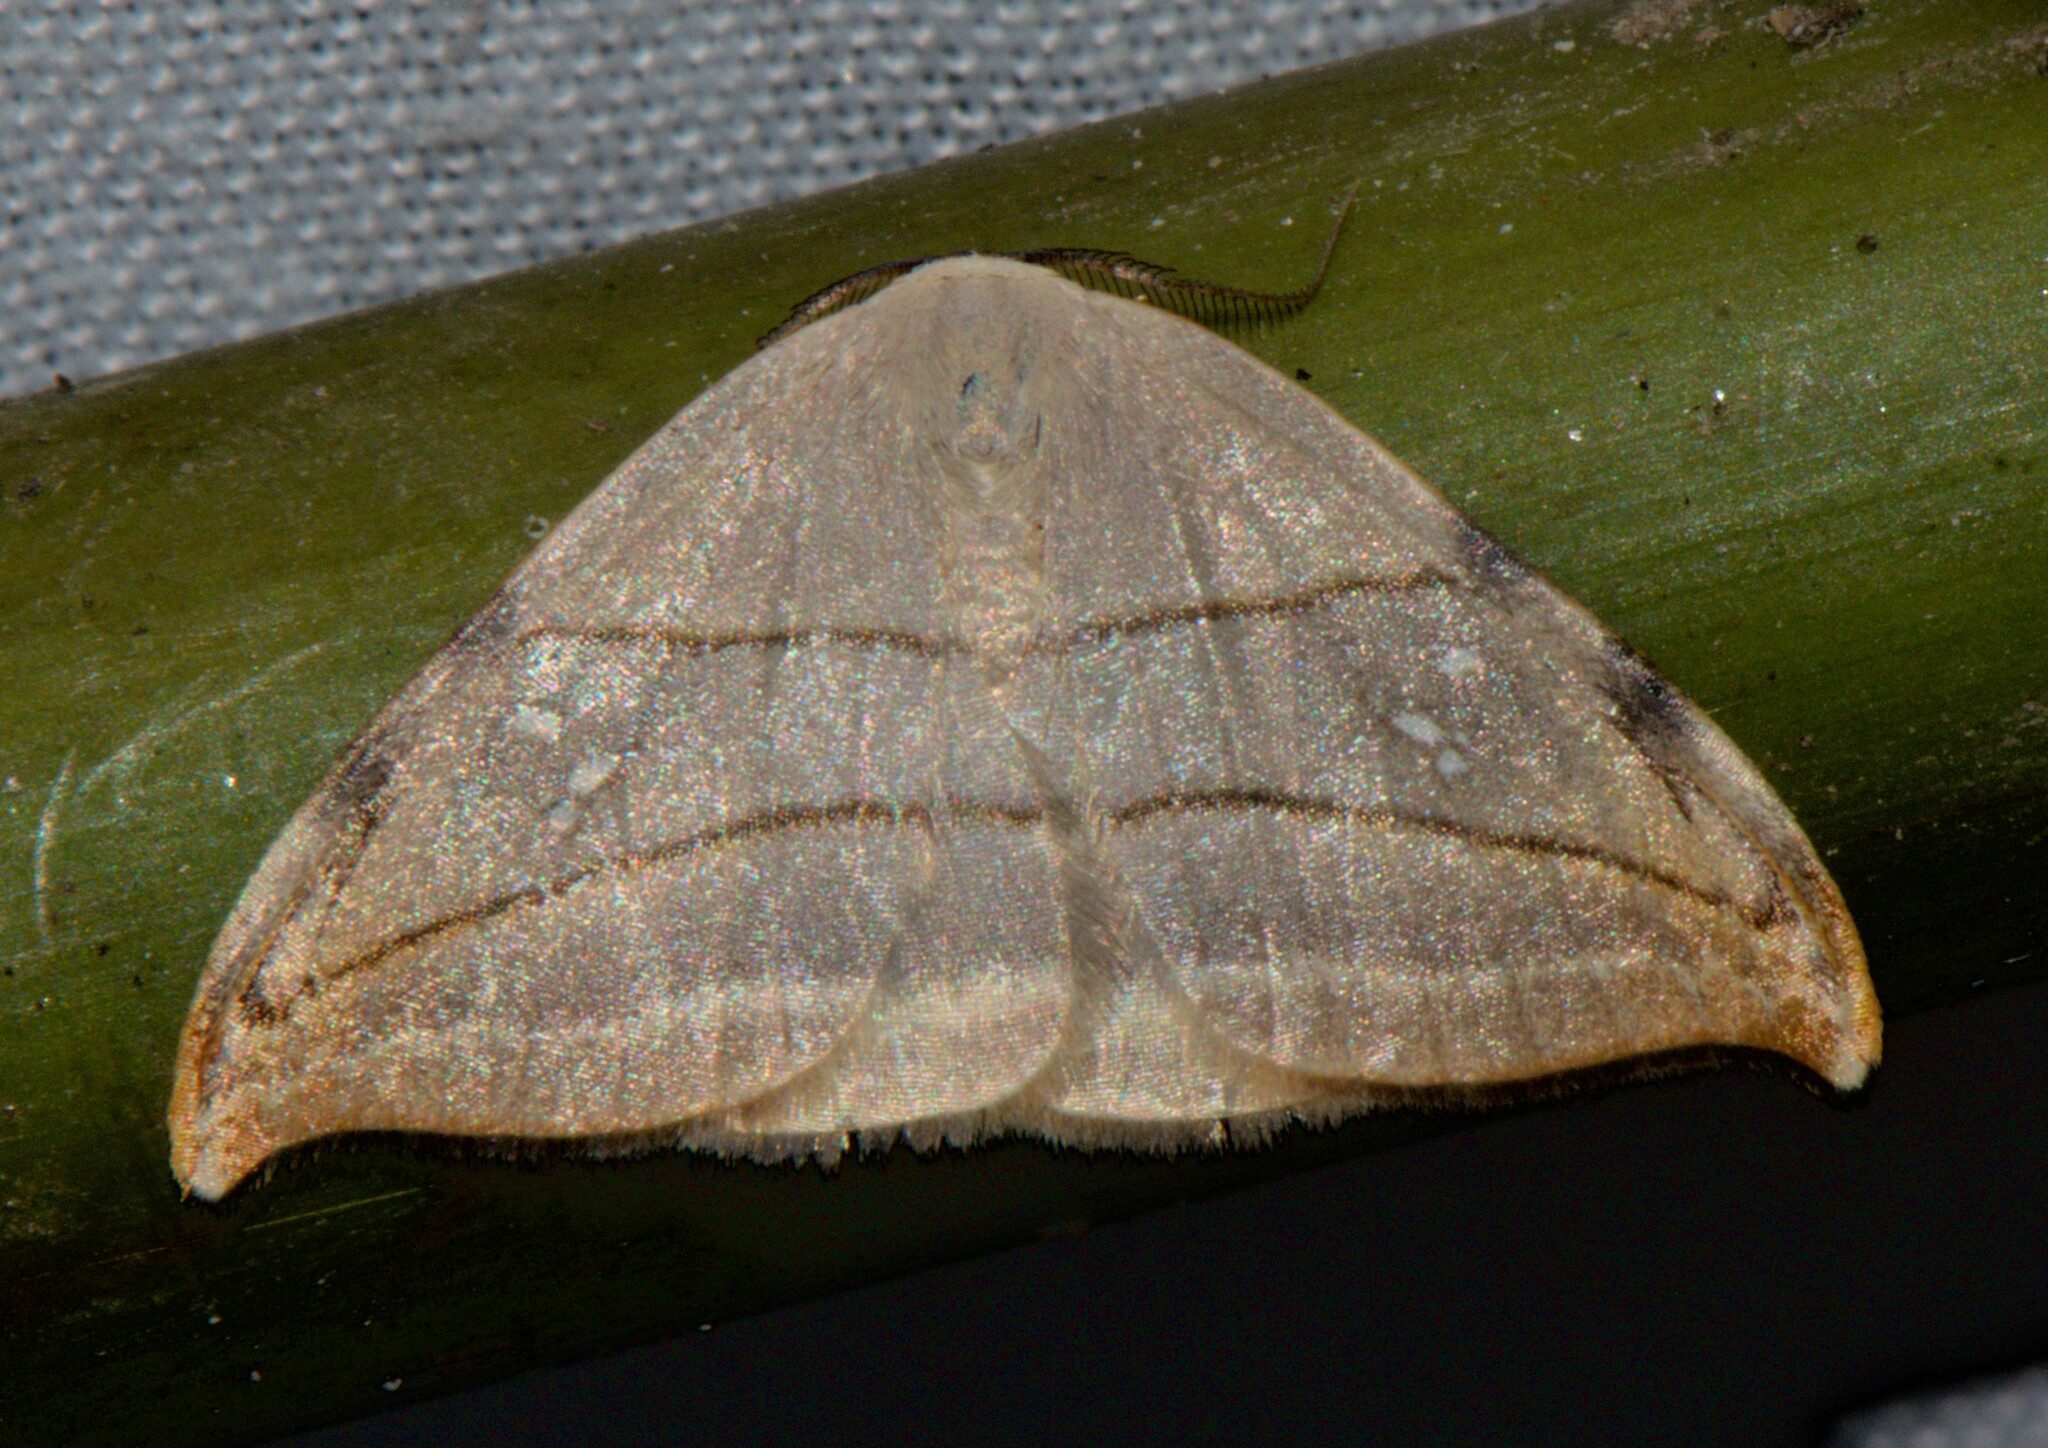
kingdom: Animalia
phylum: Arthropoda
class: Insecta
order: Lepidoptera
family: Drepanidae
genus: Nordstromia
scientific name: Nordstromia vira
